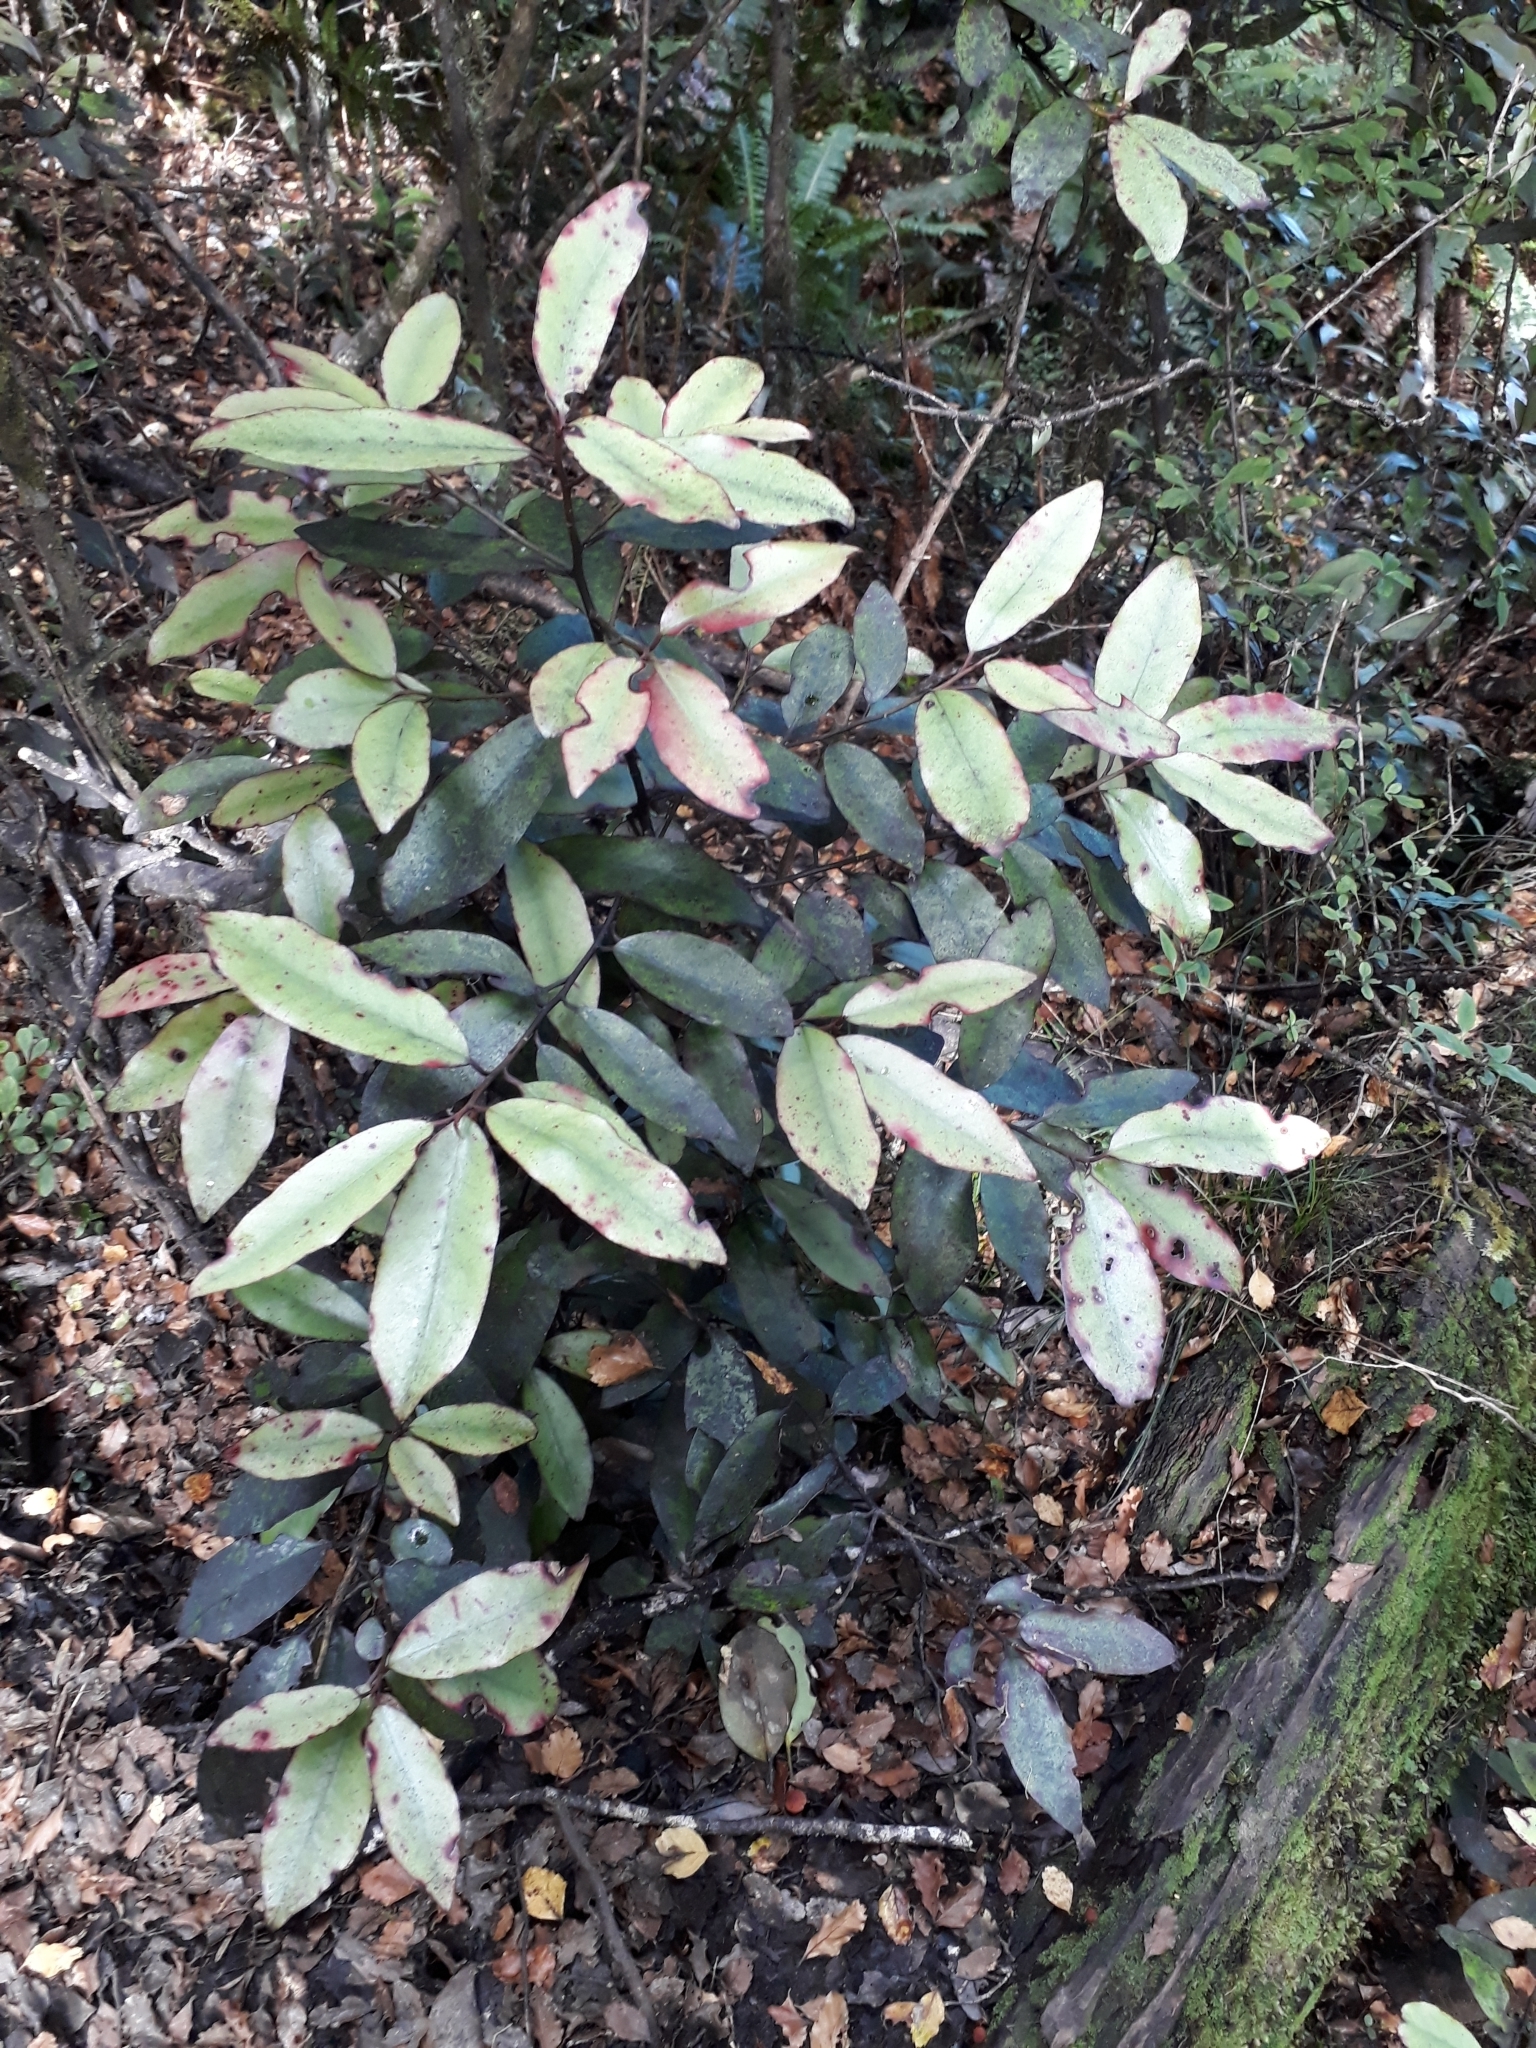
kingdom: Plantae
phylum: Tracheophyta
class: Magnoliopsida
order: Canellales
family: Winteraceae
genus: Pseudowintera
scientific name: Pseudowintera colorata
